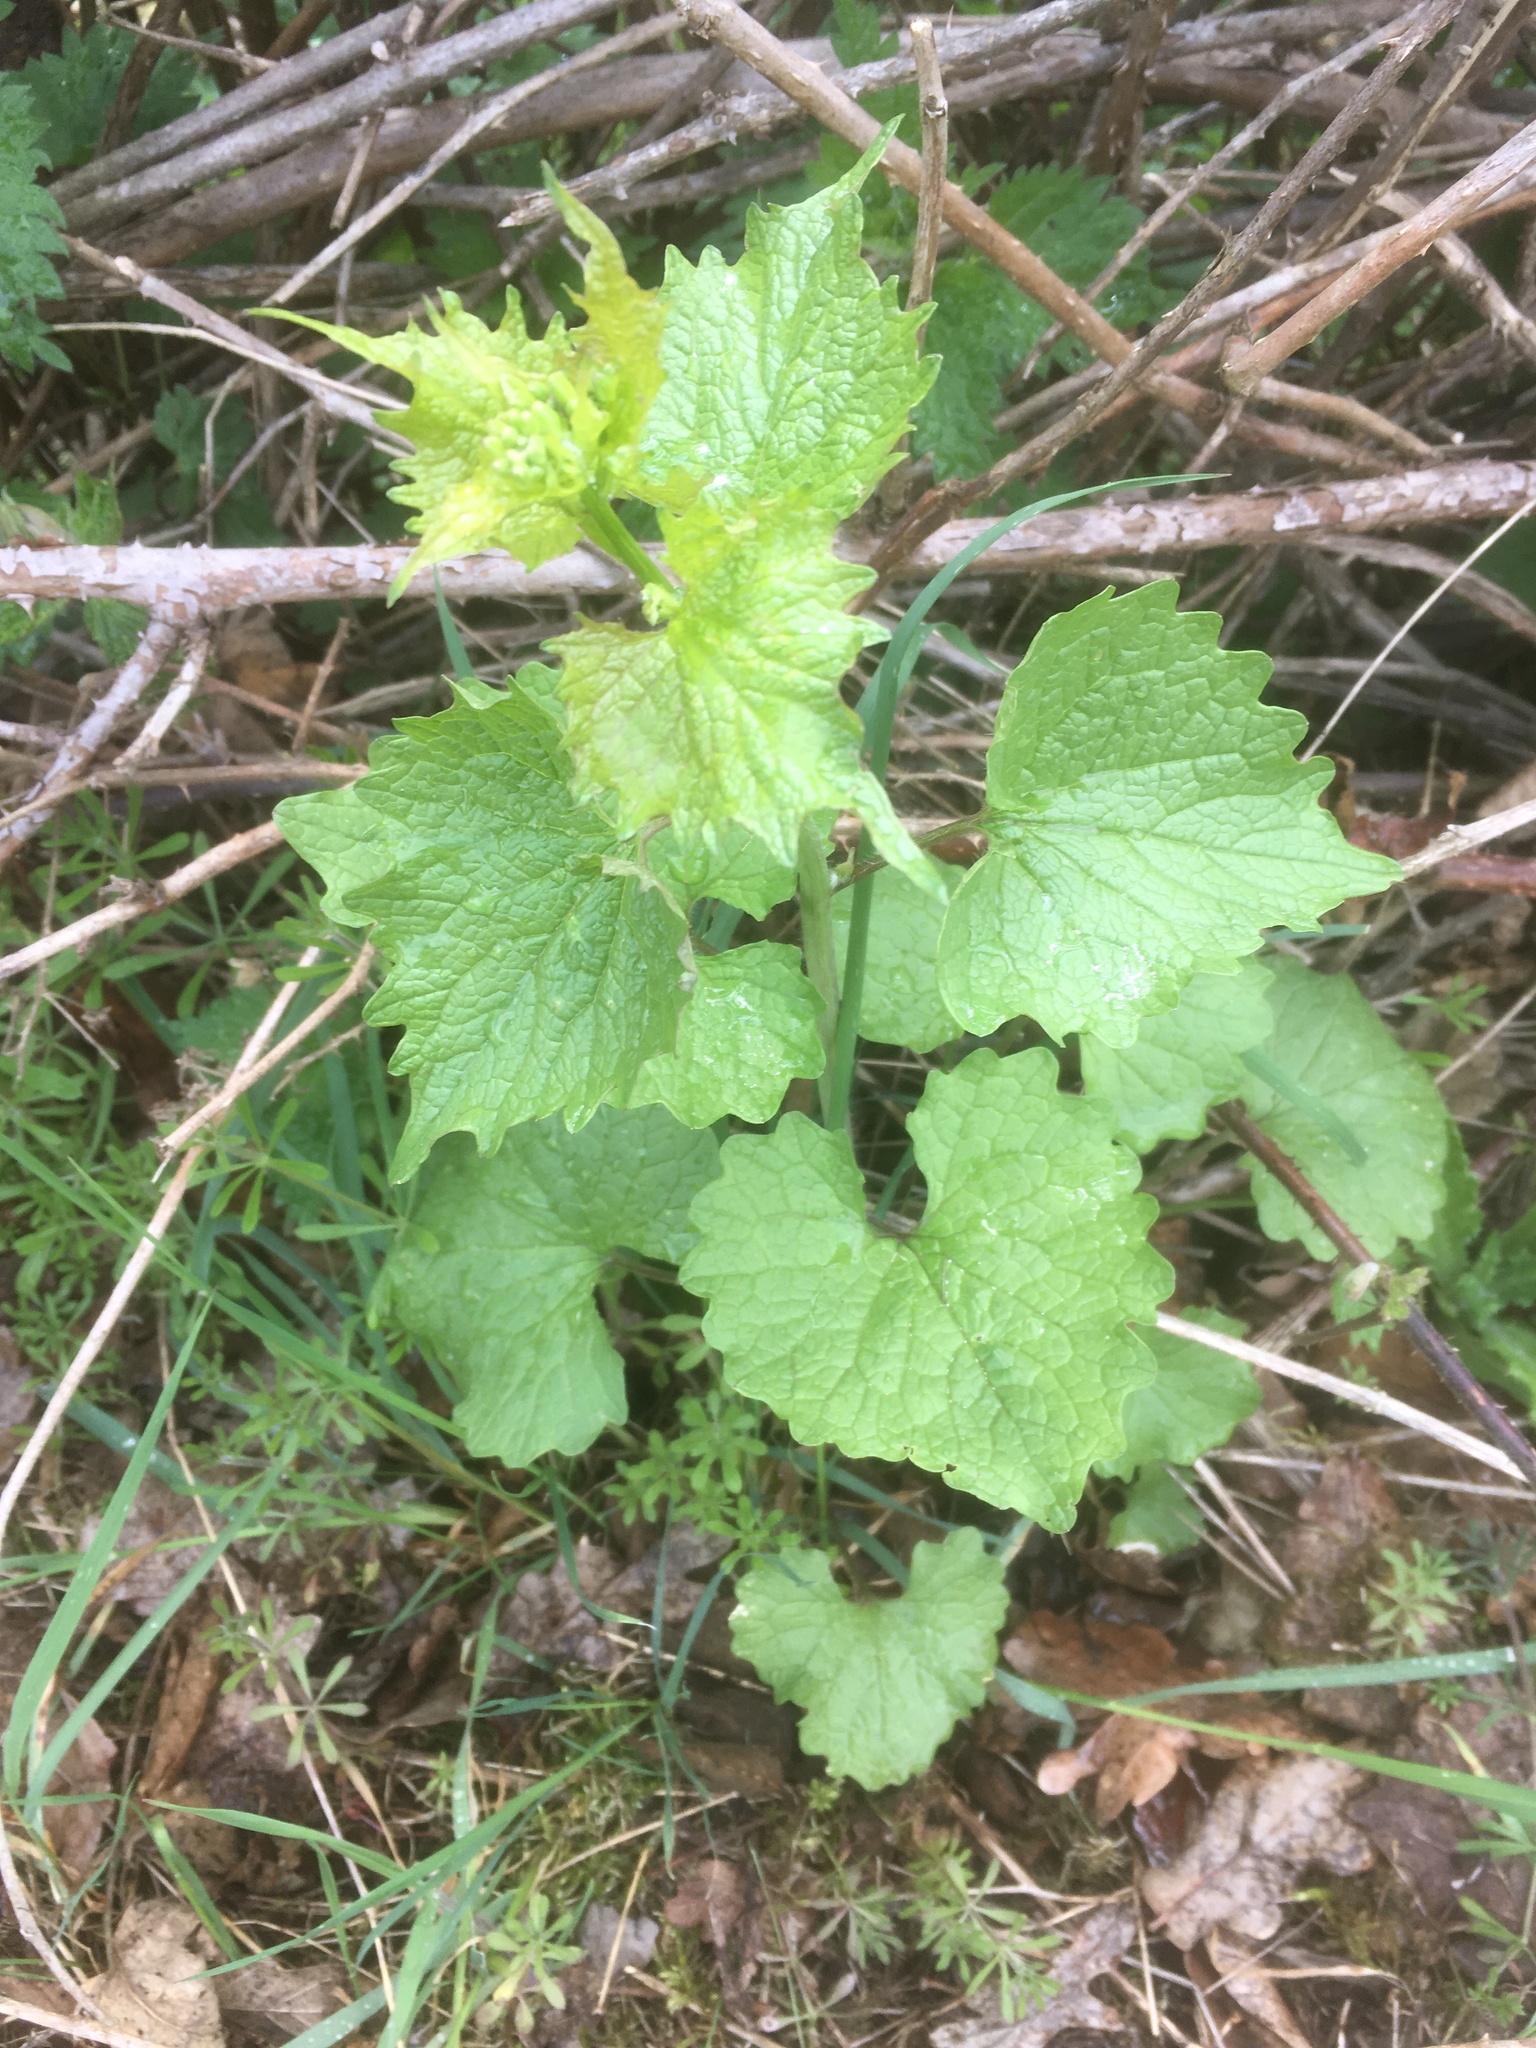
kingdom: Plantae
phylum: Tracheophyta
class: Magnoliopsida
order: Brassicales
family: Brassicaceae
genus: Alliaria
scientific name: Alliaria petiolata
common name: Garlic mustard
